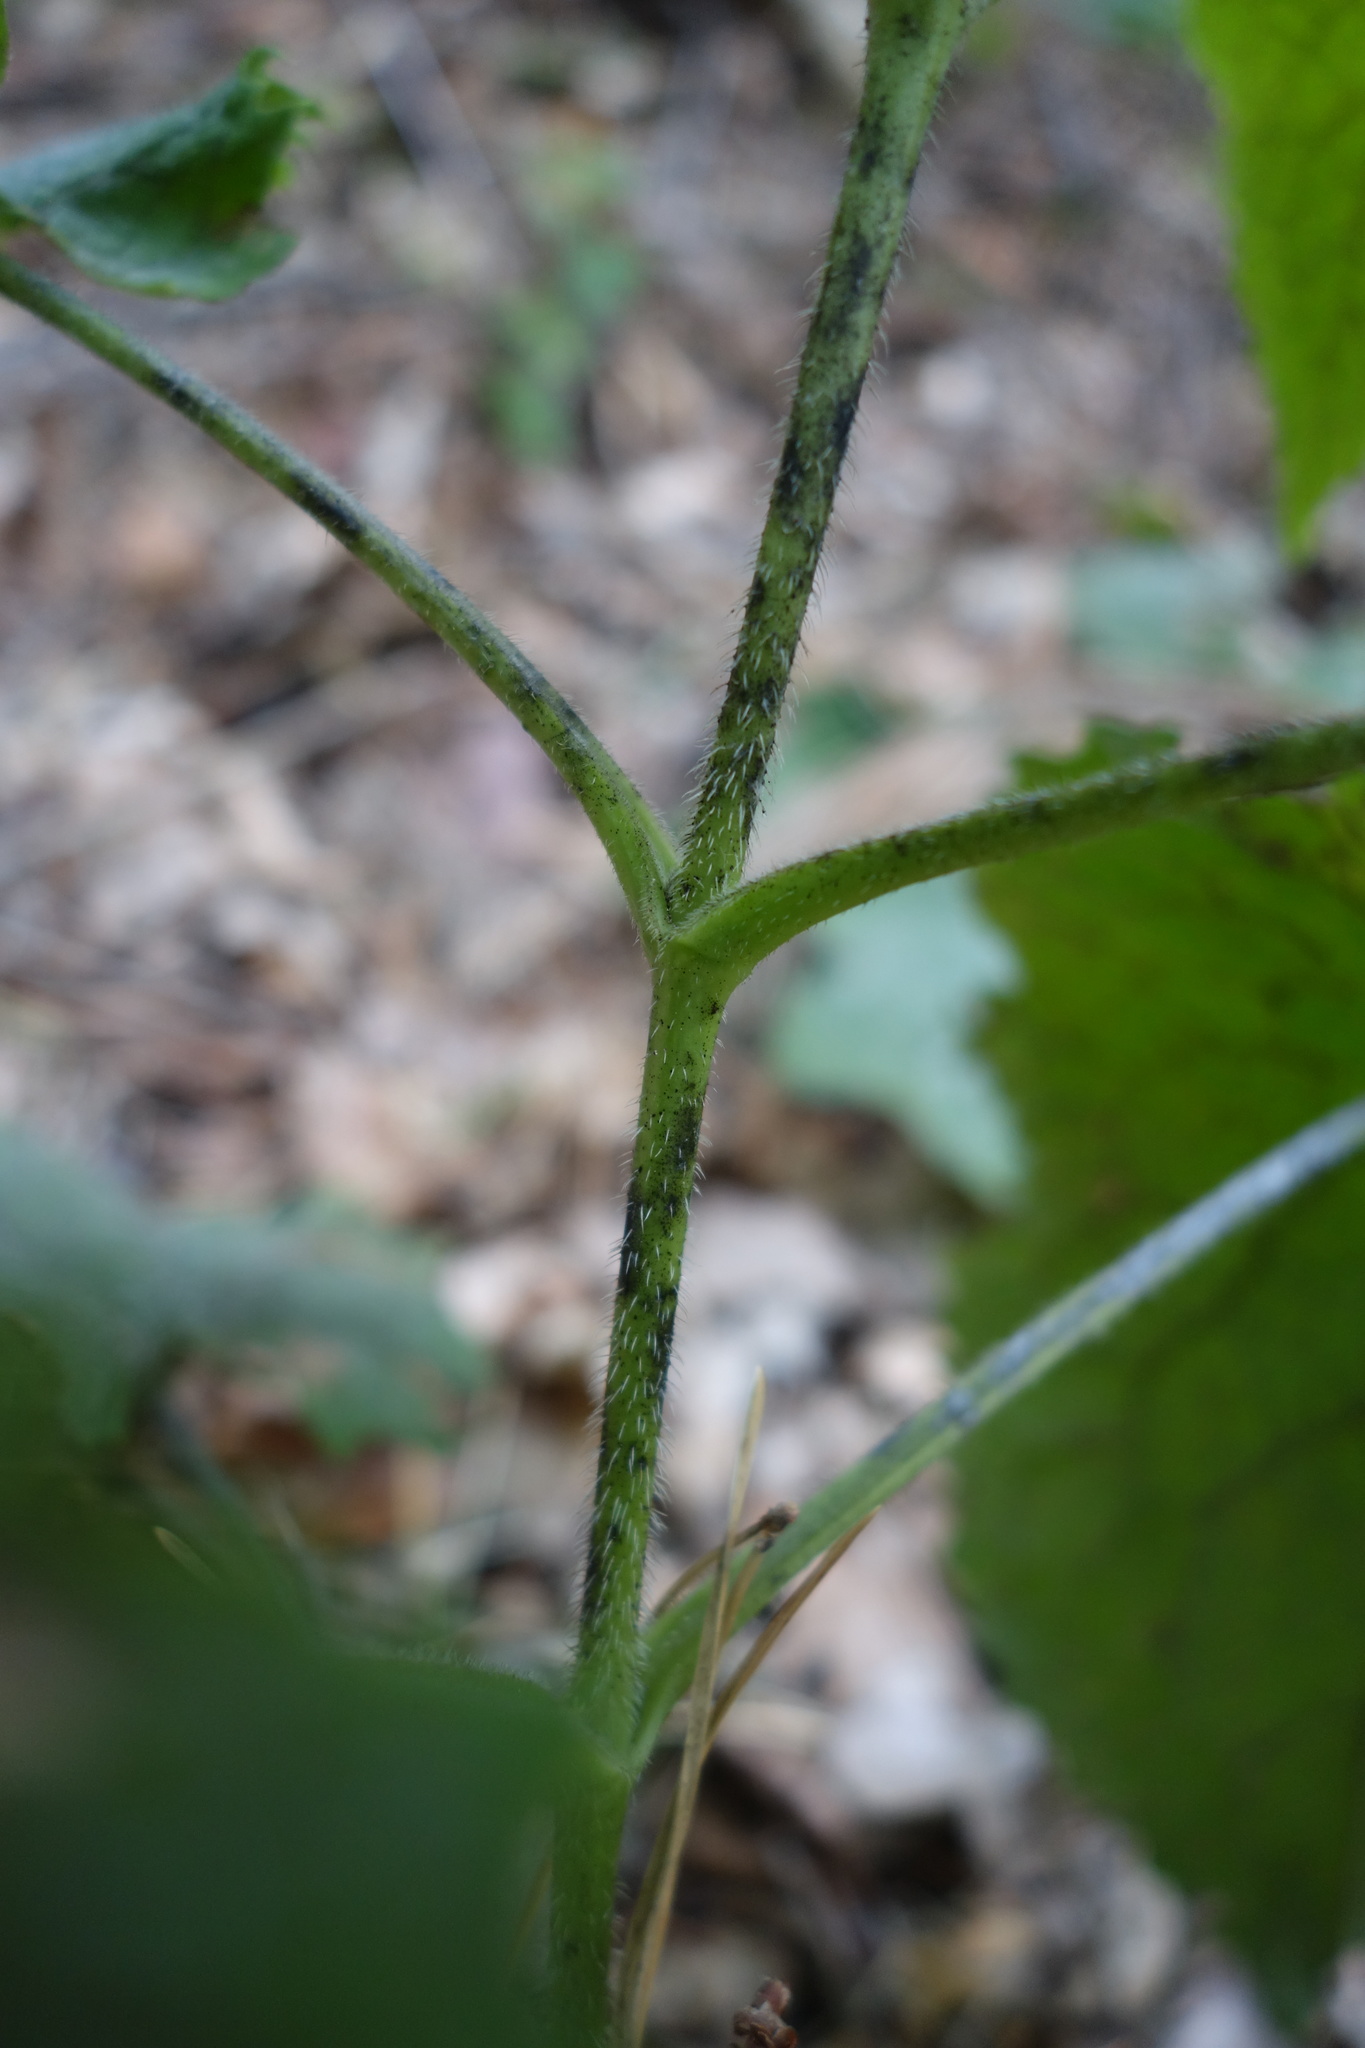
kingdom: Plantae
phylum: Tracheophyta
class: Magnoliopsida
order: Brassicales
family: Brassicaceae
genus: Lunaria
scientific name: Lunaria rediviva
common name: Perennial honesty
